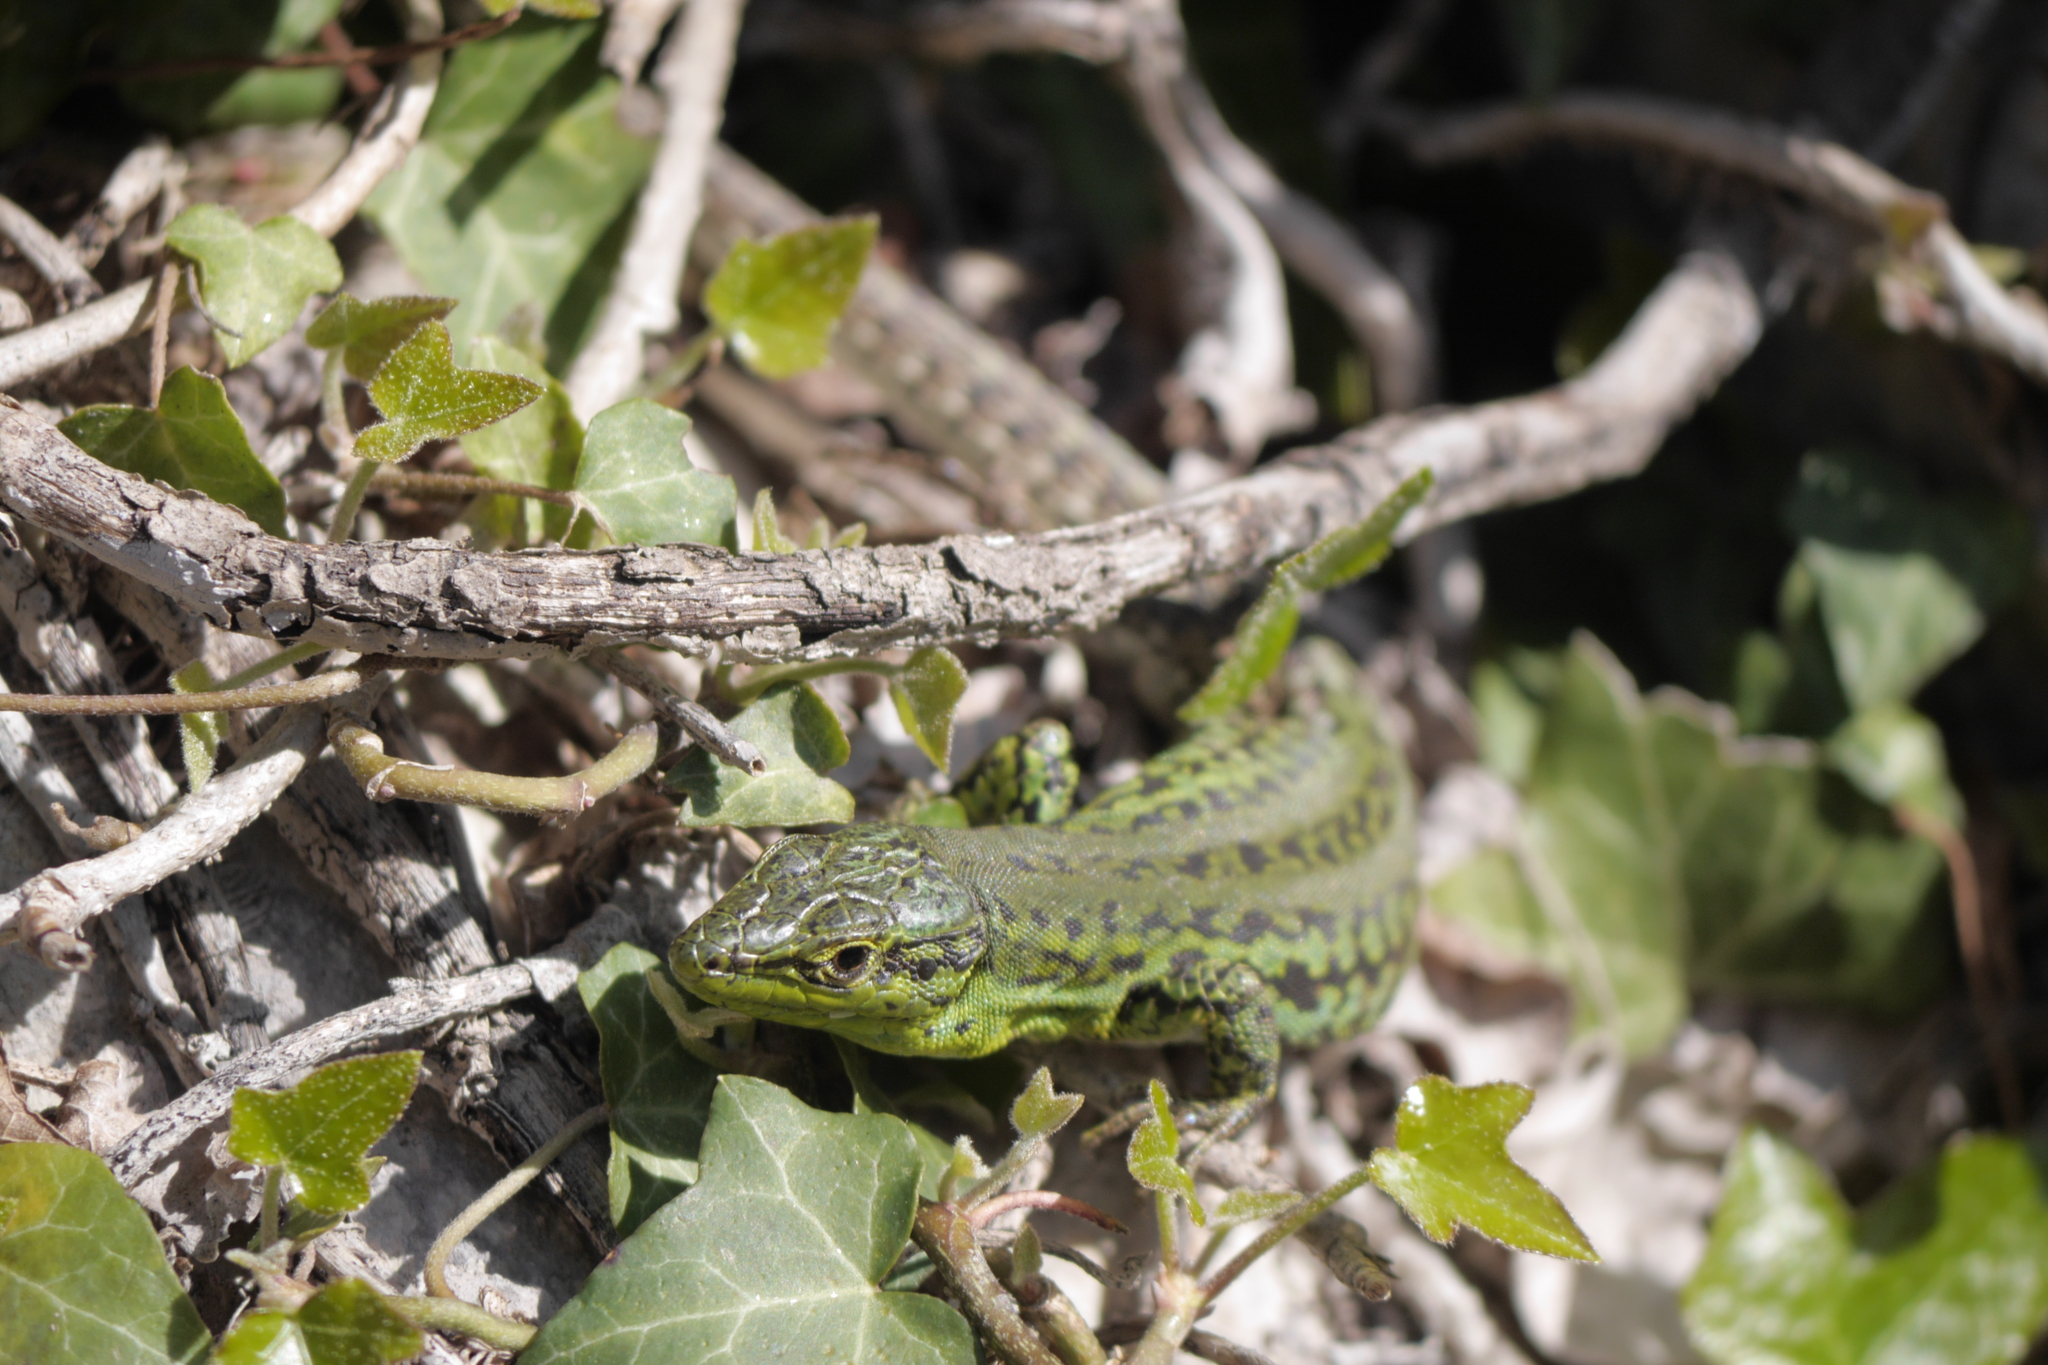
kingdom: Animalia
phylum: Chordata
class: Squamata
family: Lacertidae
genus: Podarcis
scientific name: Podarcis siculus
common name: Italian wall lizard
